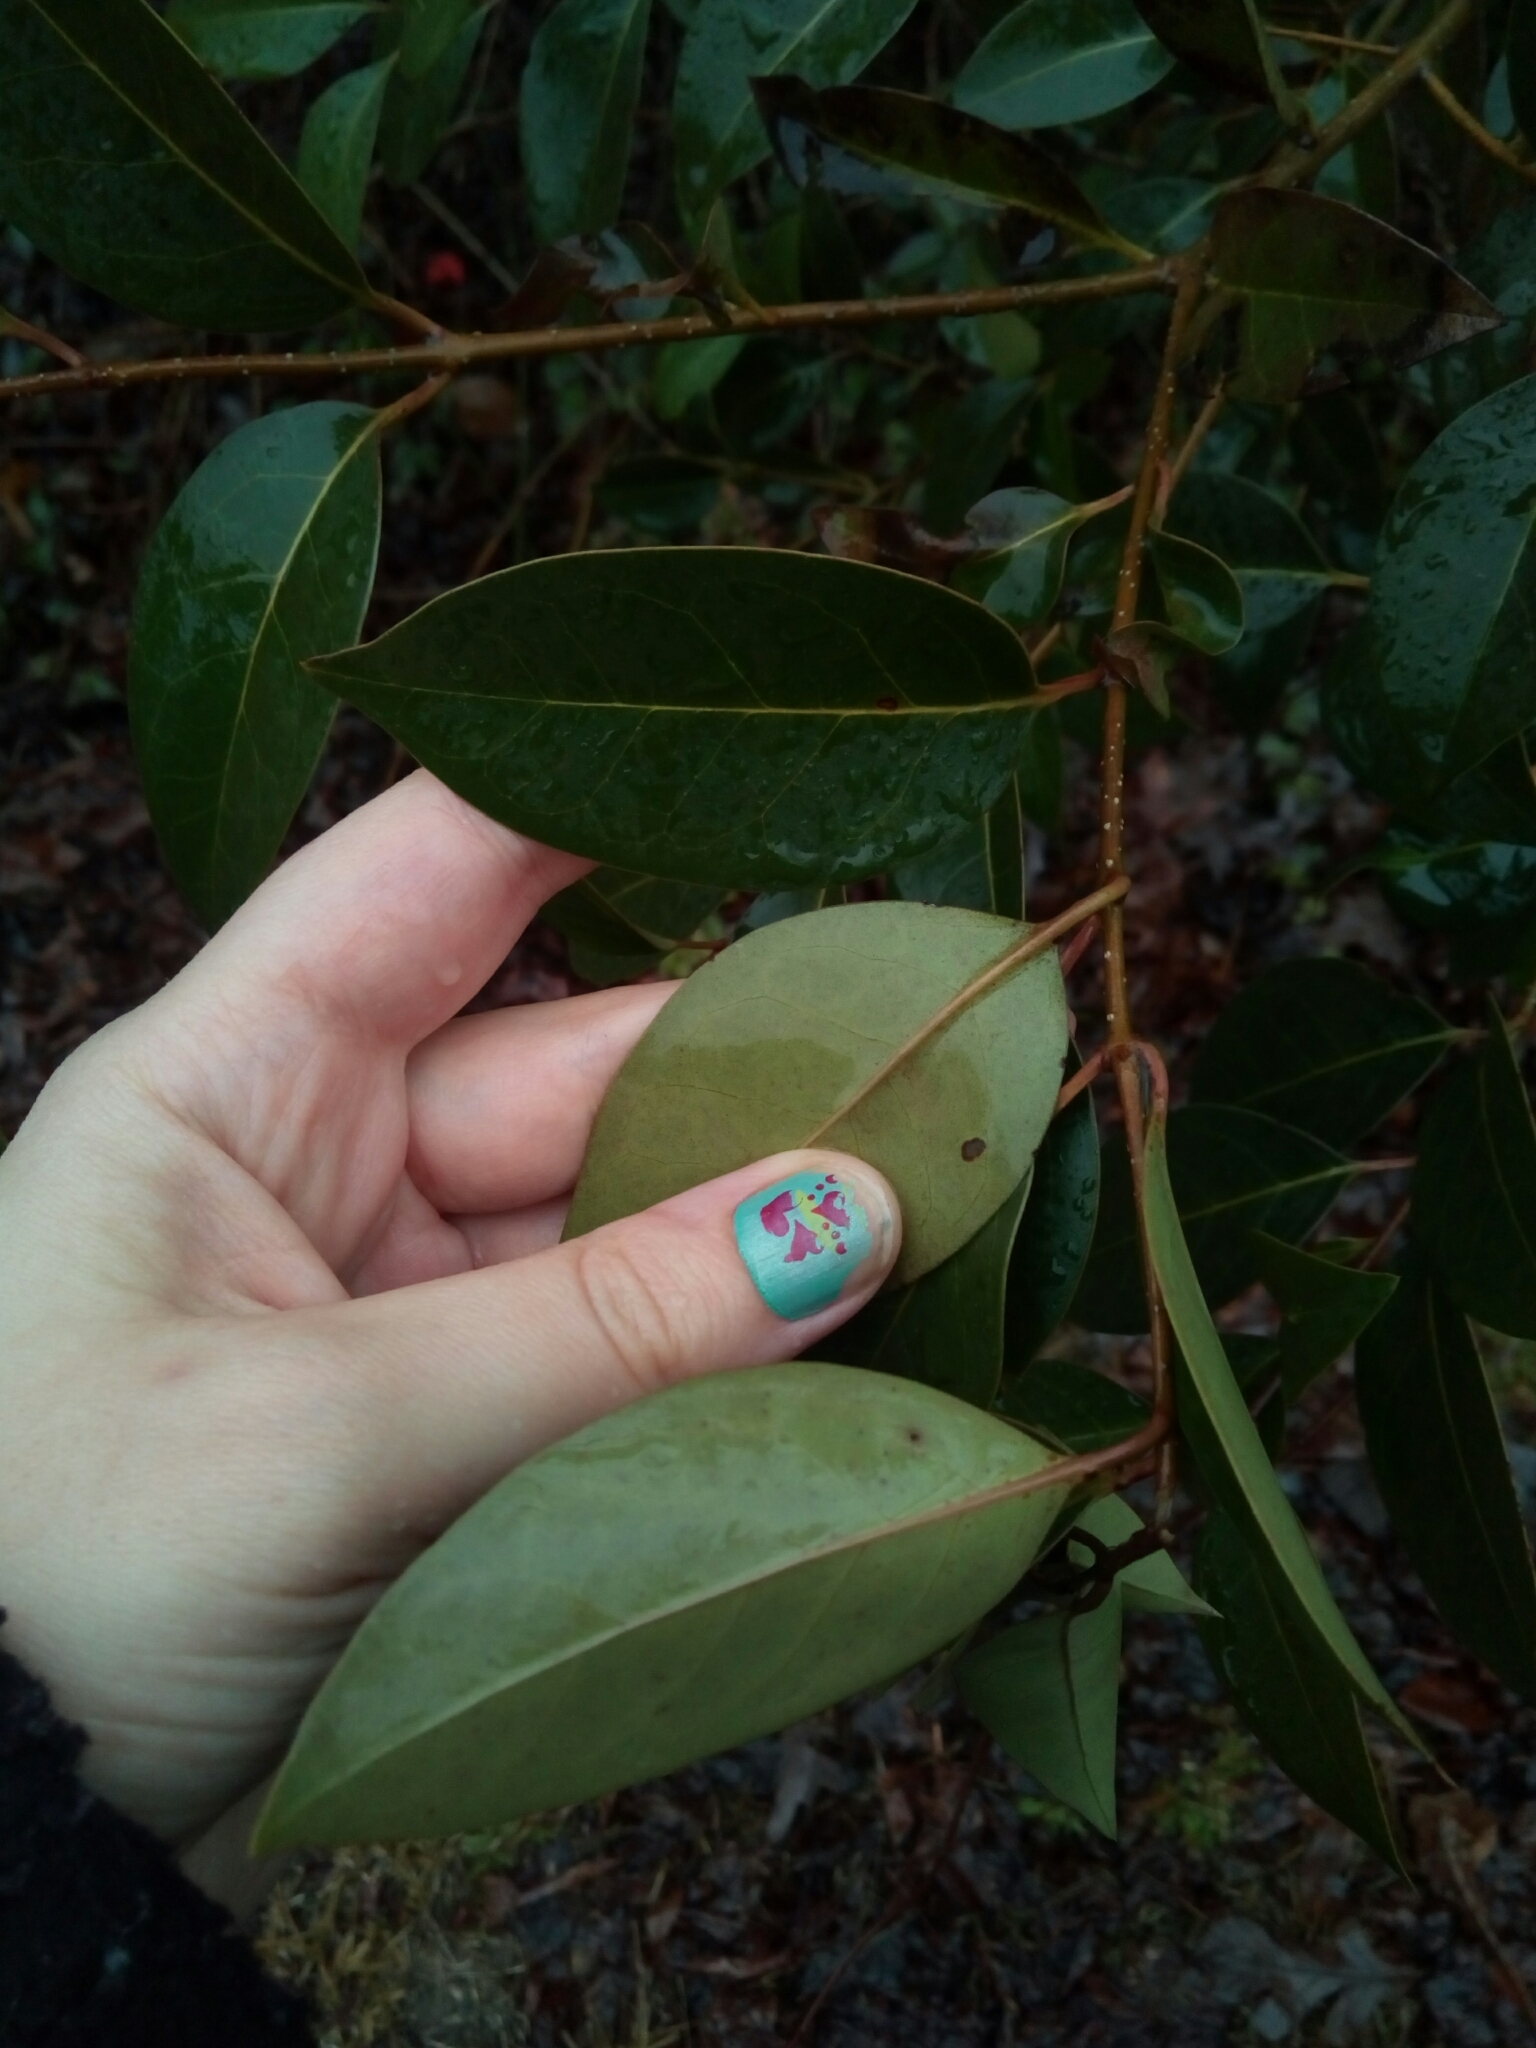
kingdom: Plantae
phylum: Tracheophyta
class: Magnoliopsida
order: Lamiales
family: Oleaceae
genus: Ligustrum
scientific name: Ligustrum lucidum
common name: Glossy privet
